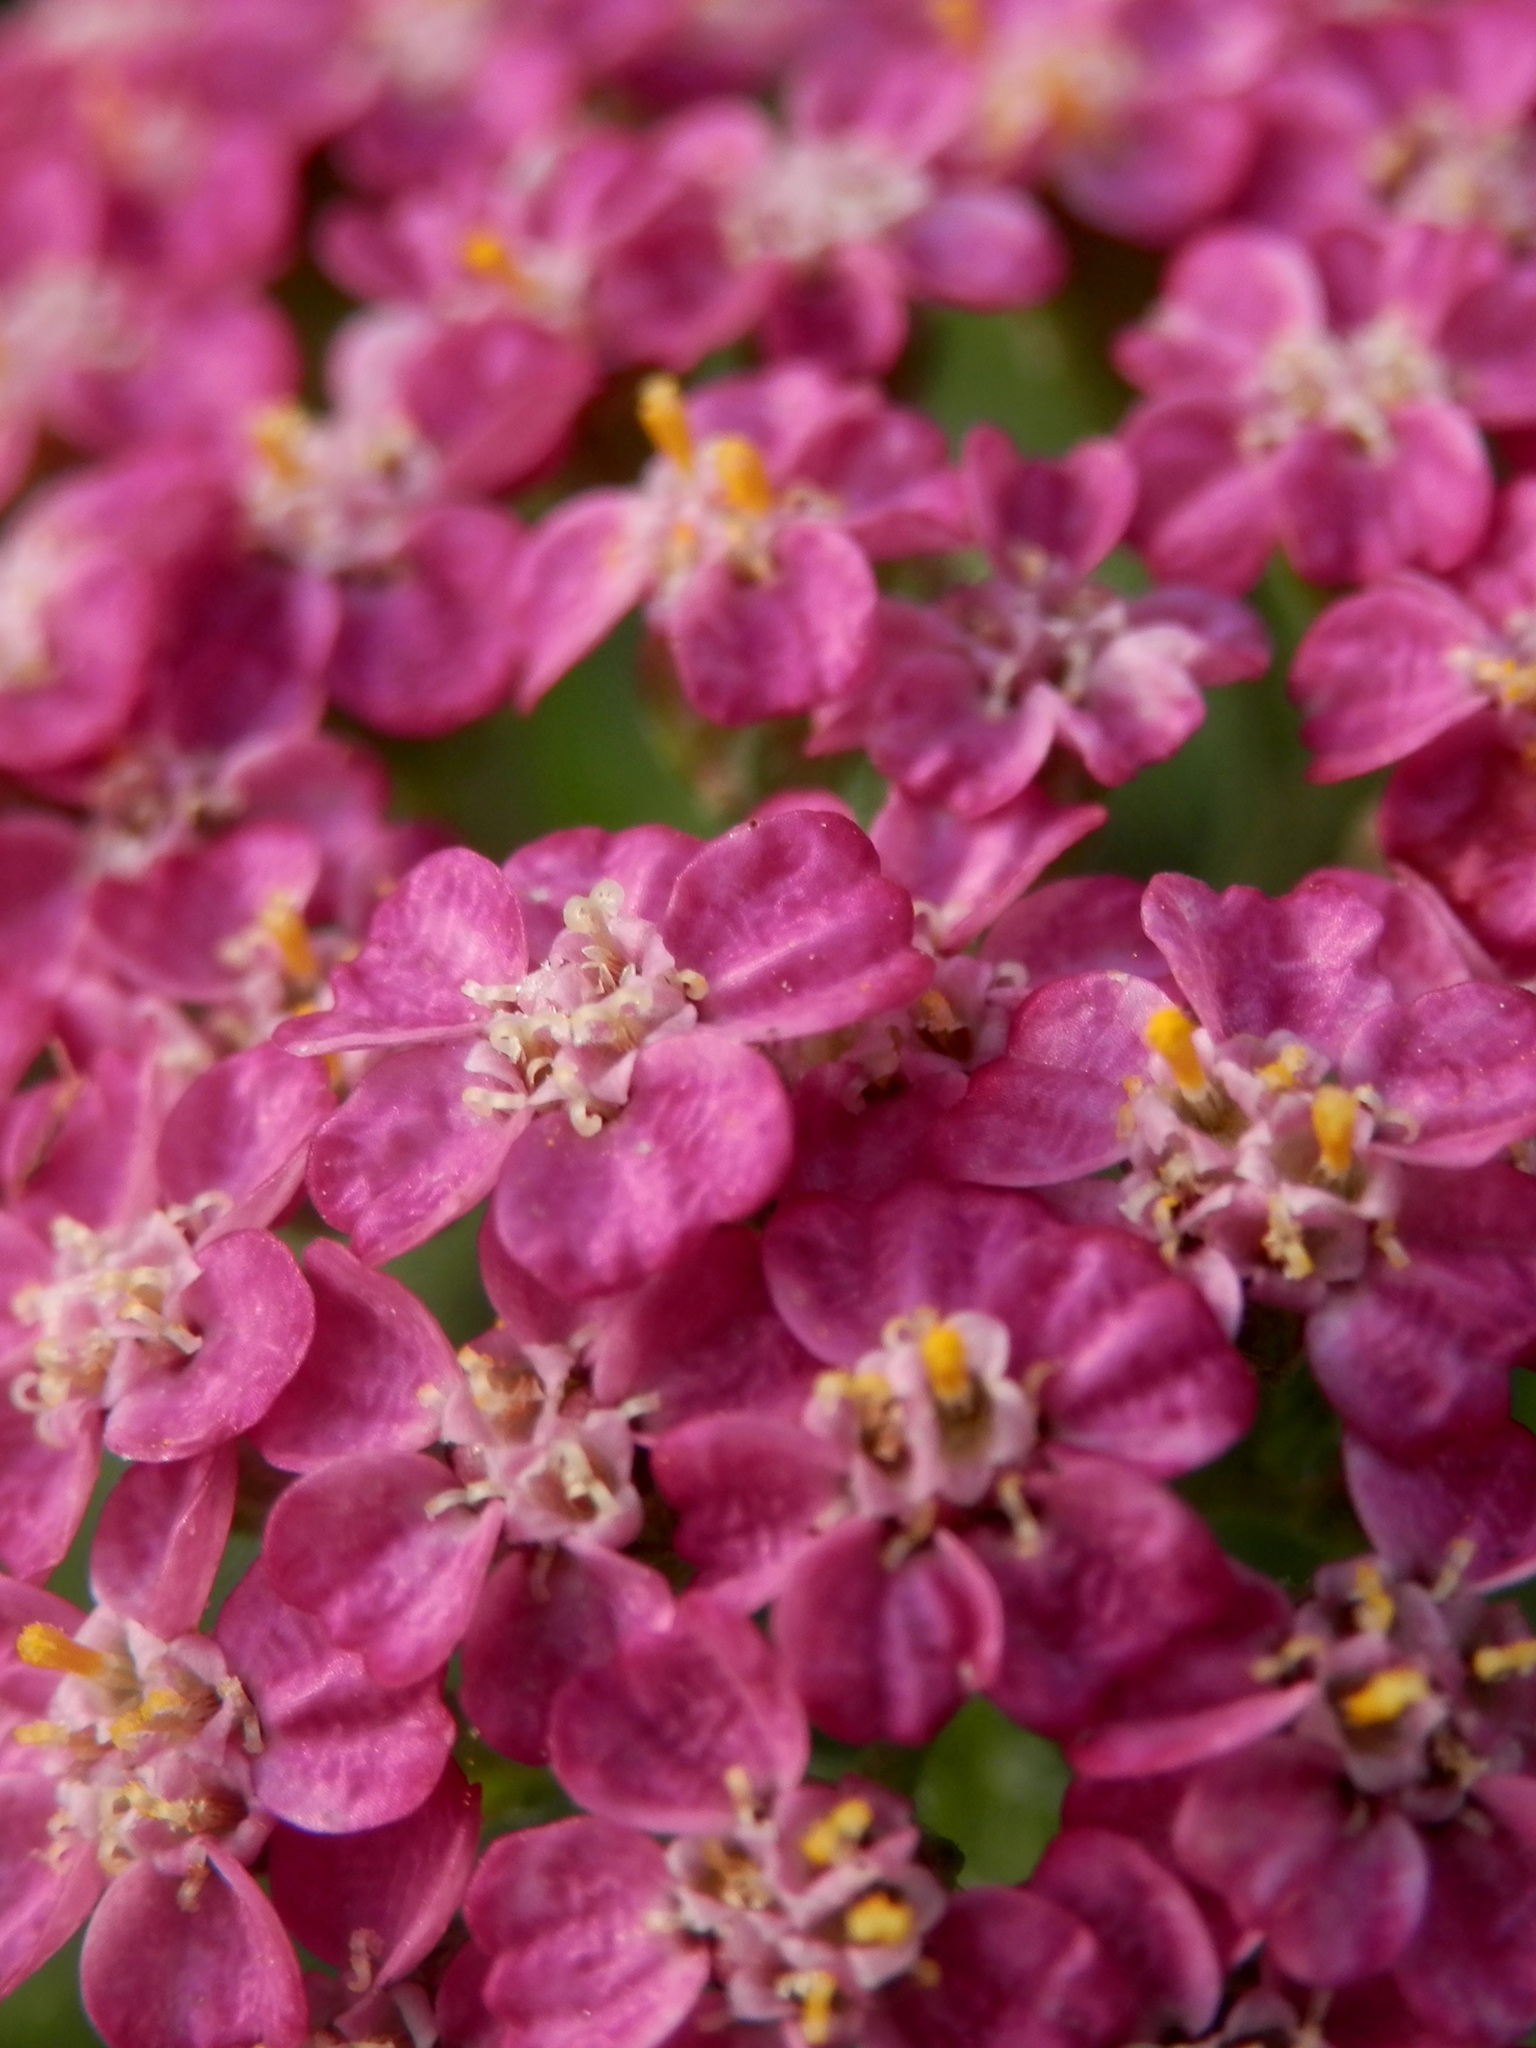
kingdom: Plantae
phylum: Tracheophyta
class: Magnoliopsida
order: Asterales
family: Asteraceae
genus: Achillea
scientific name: Achillea millefolium
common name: Yarrow
